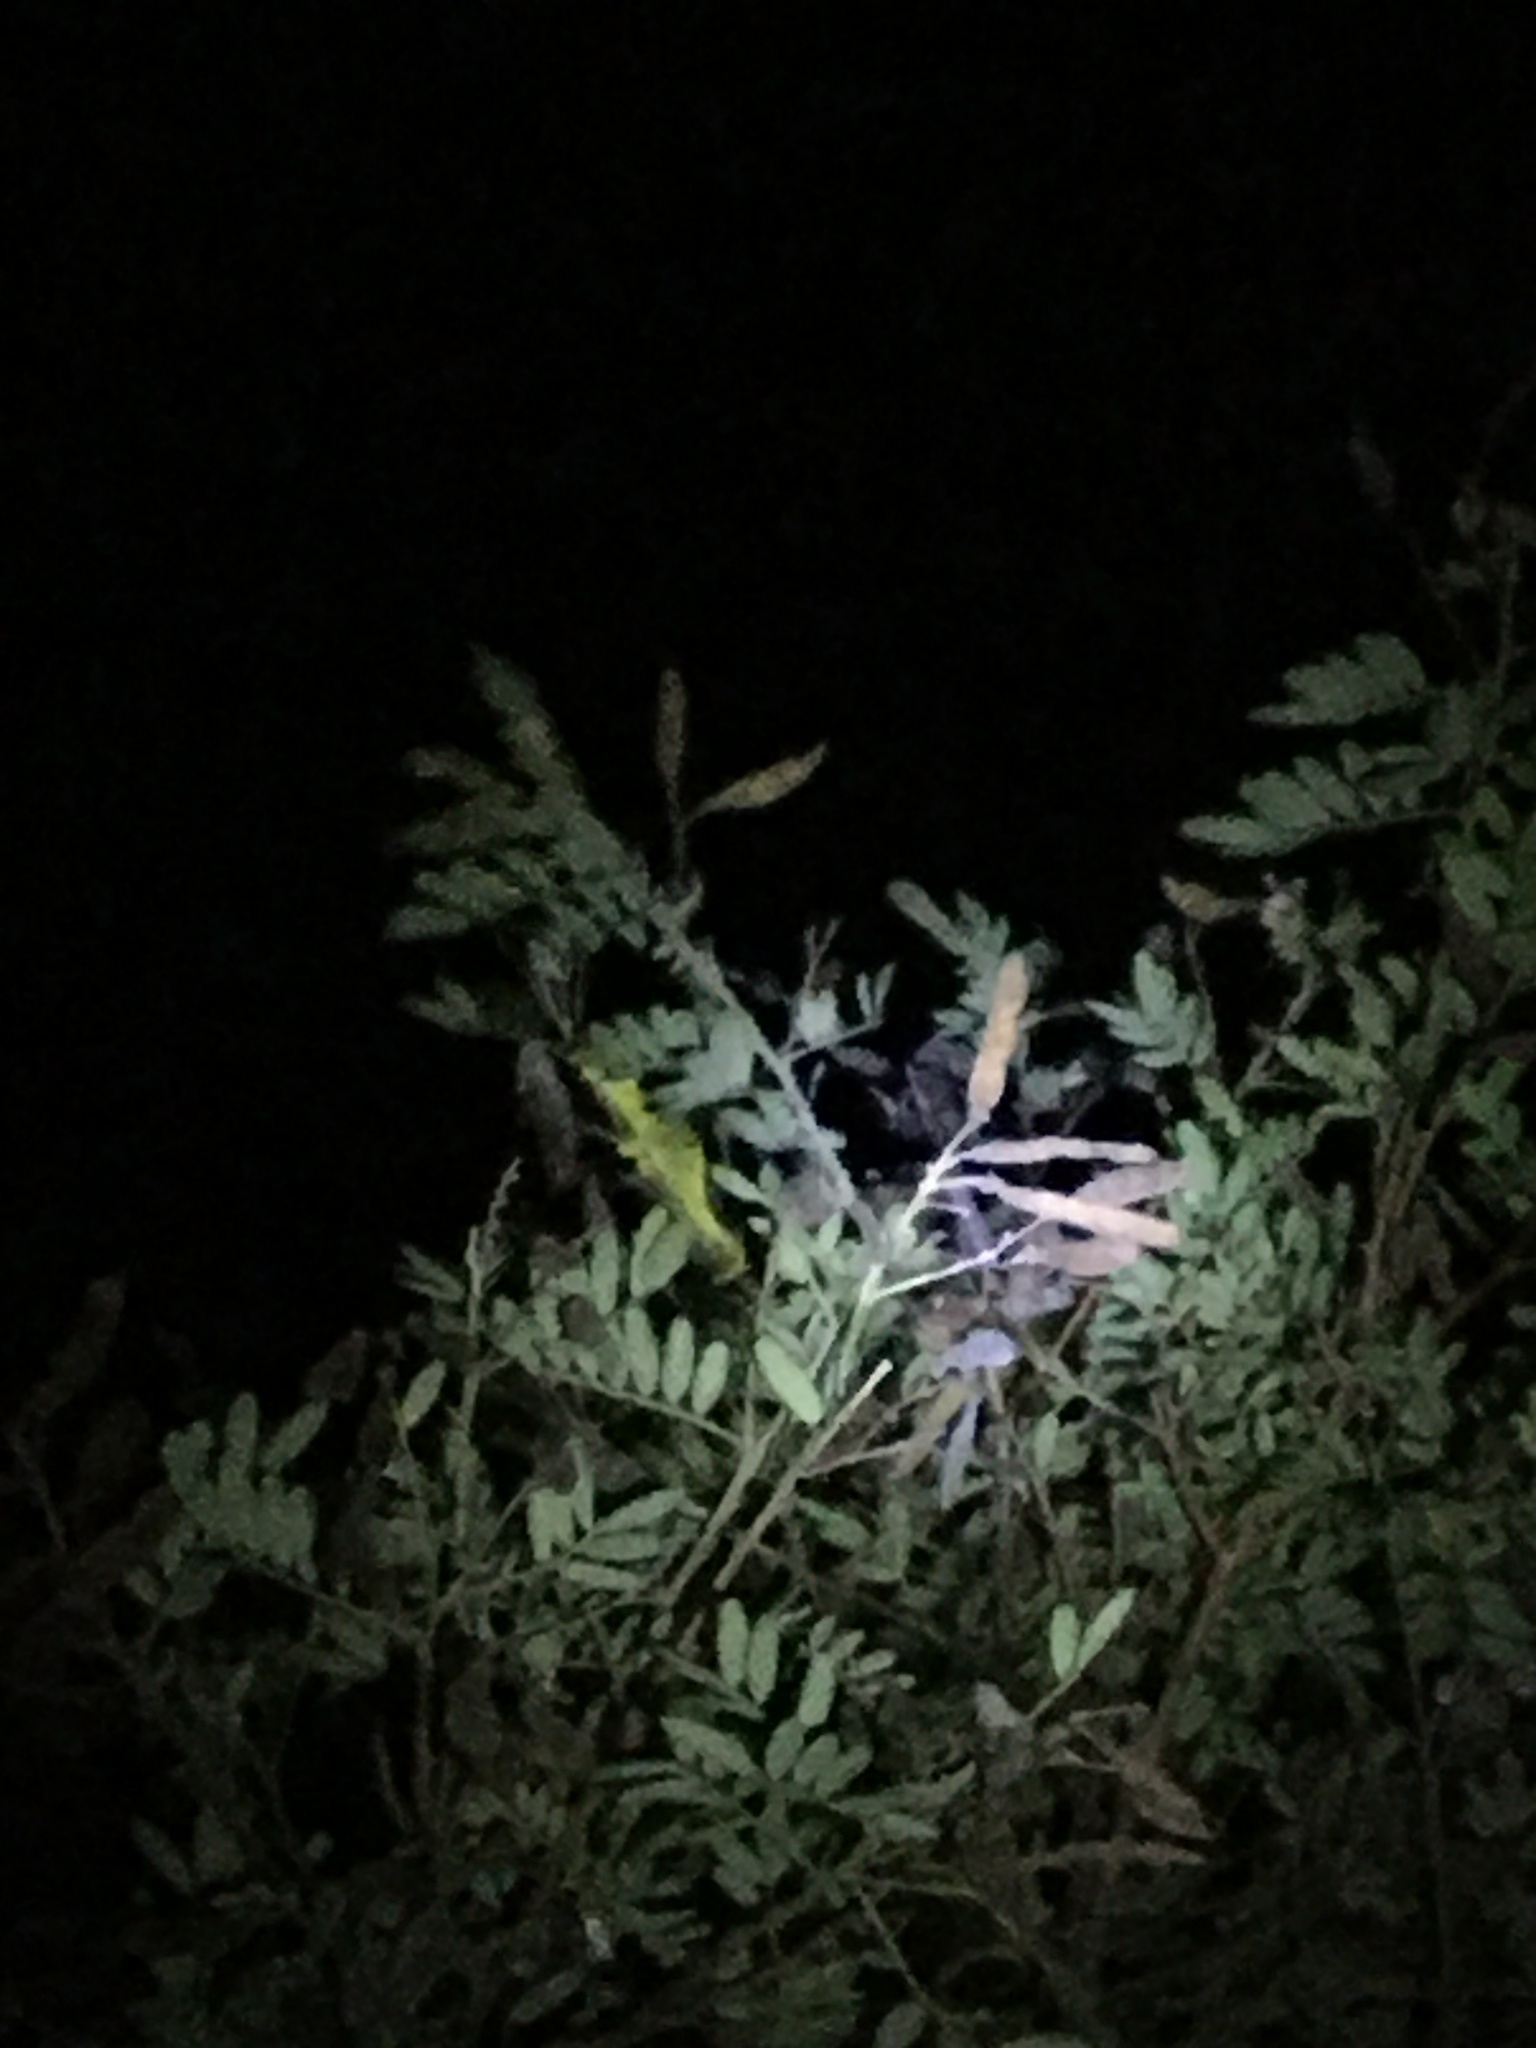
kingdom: Animalia
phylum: Chordata
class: Squamata
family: Chamaeleonidae
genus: Bradypodion
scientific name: Bradypodion pumilum
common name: Cape dwarf chameleon
